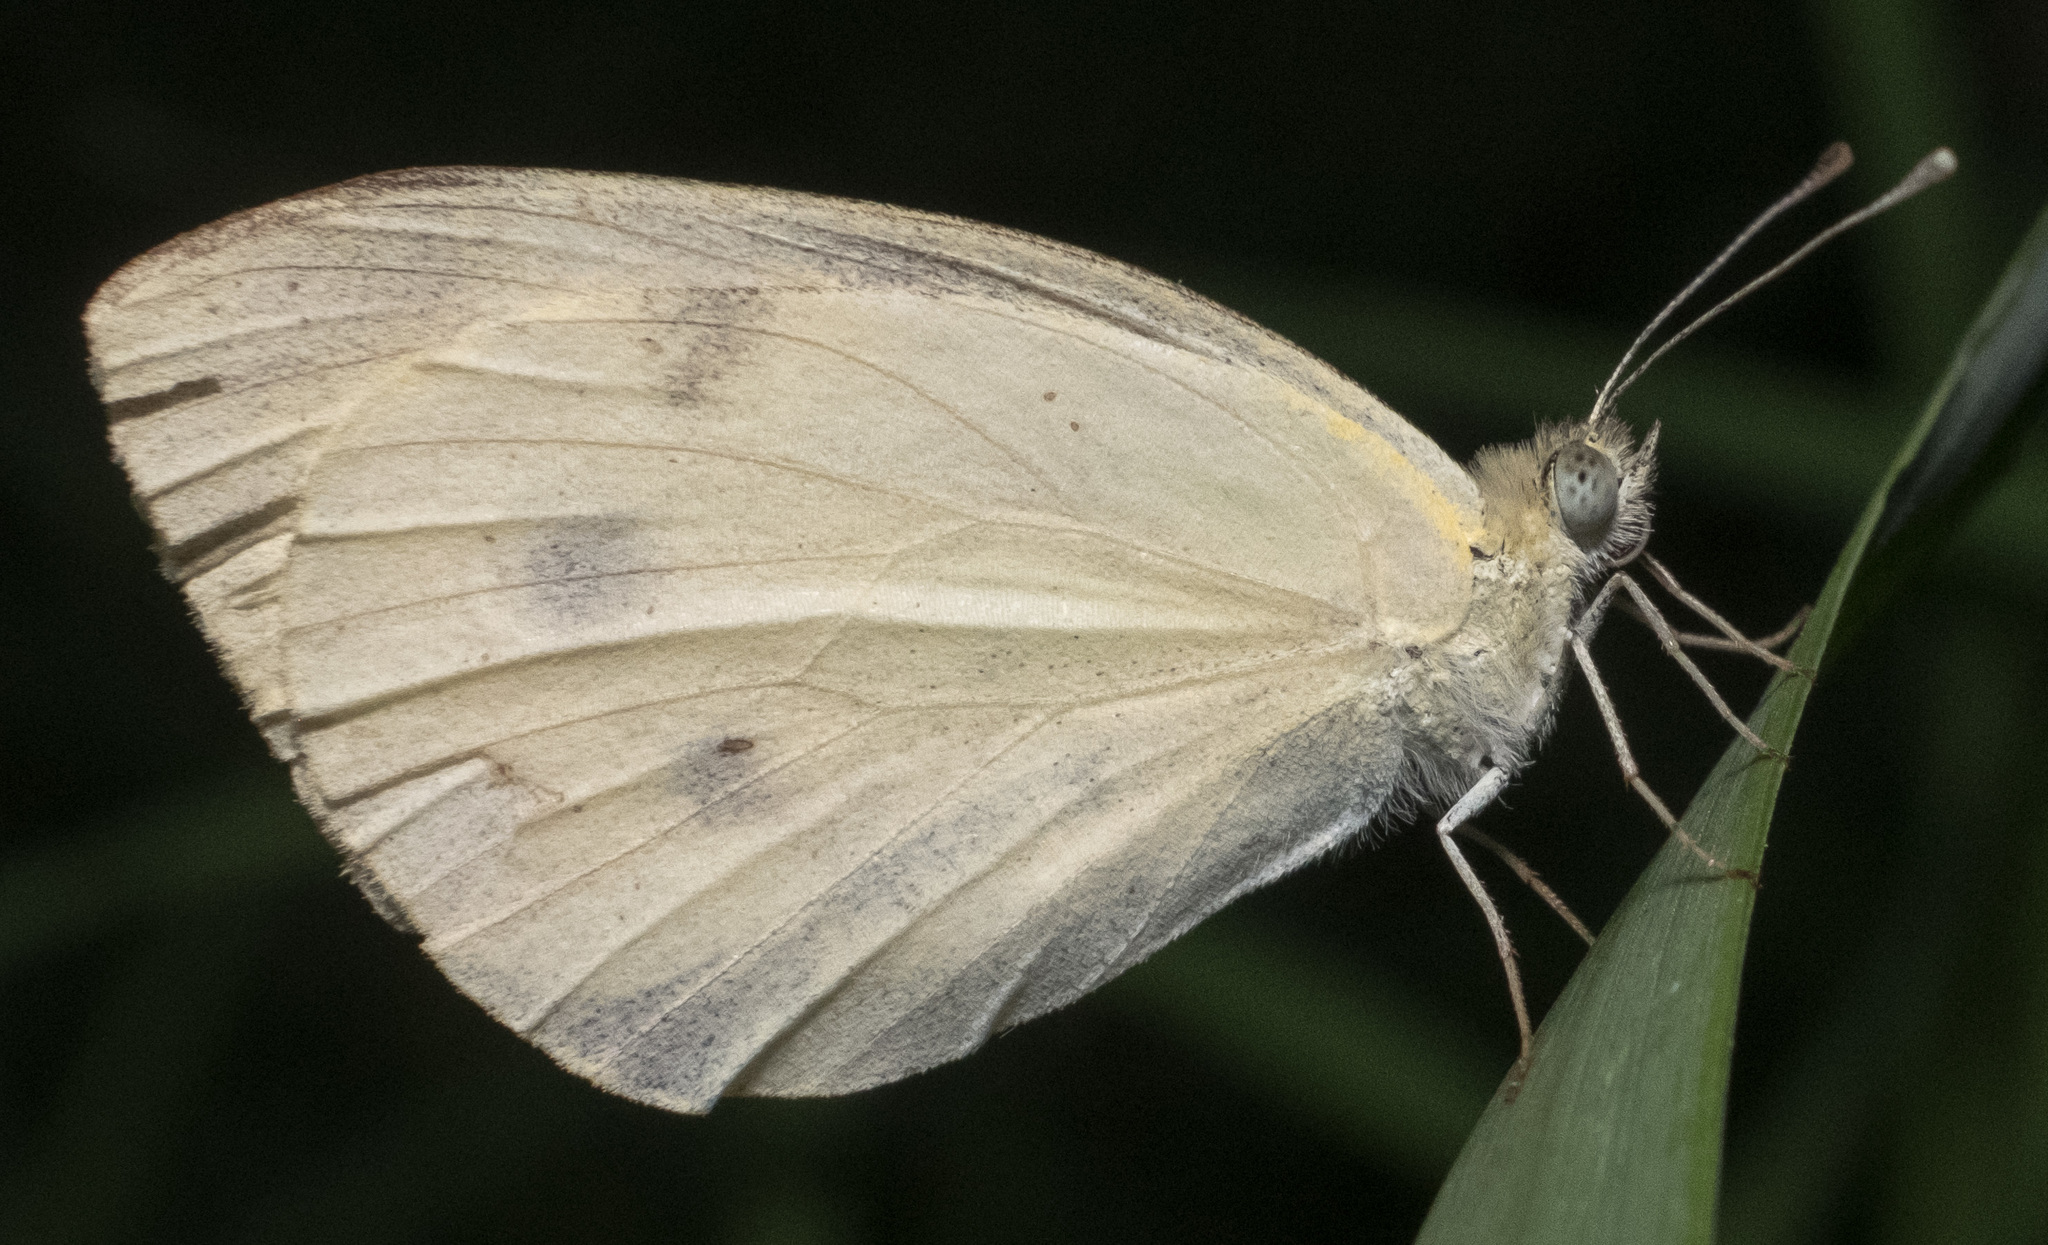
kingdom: Animalia
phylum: Arthropoda
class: Insecta
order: Lepidoptera
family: Pieridae
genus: Pieris
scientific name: Pieris rapae
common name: Small white
